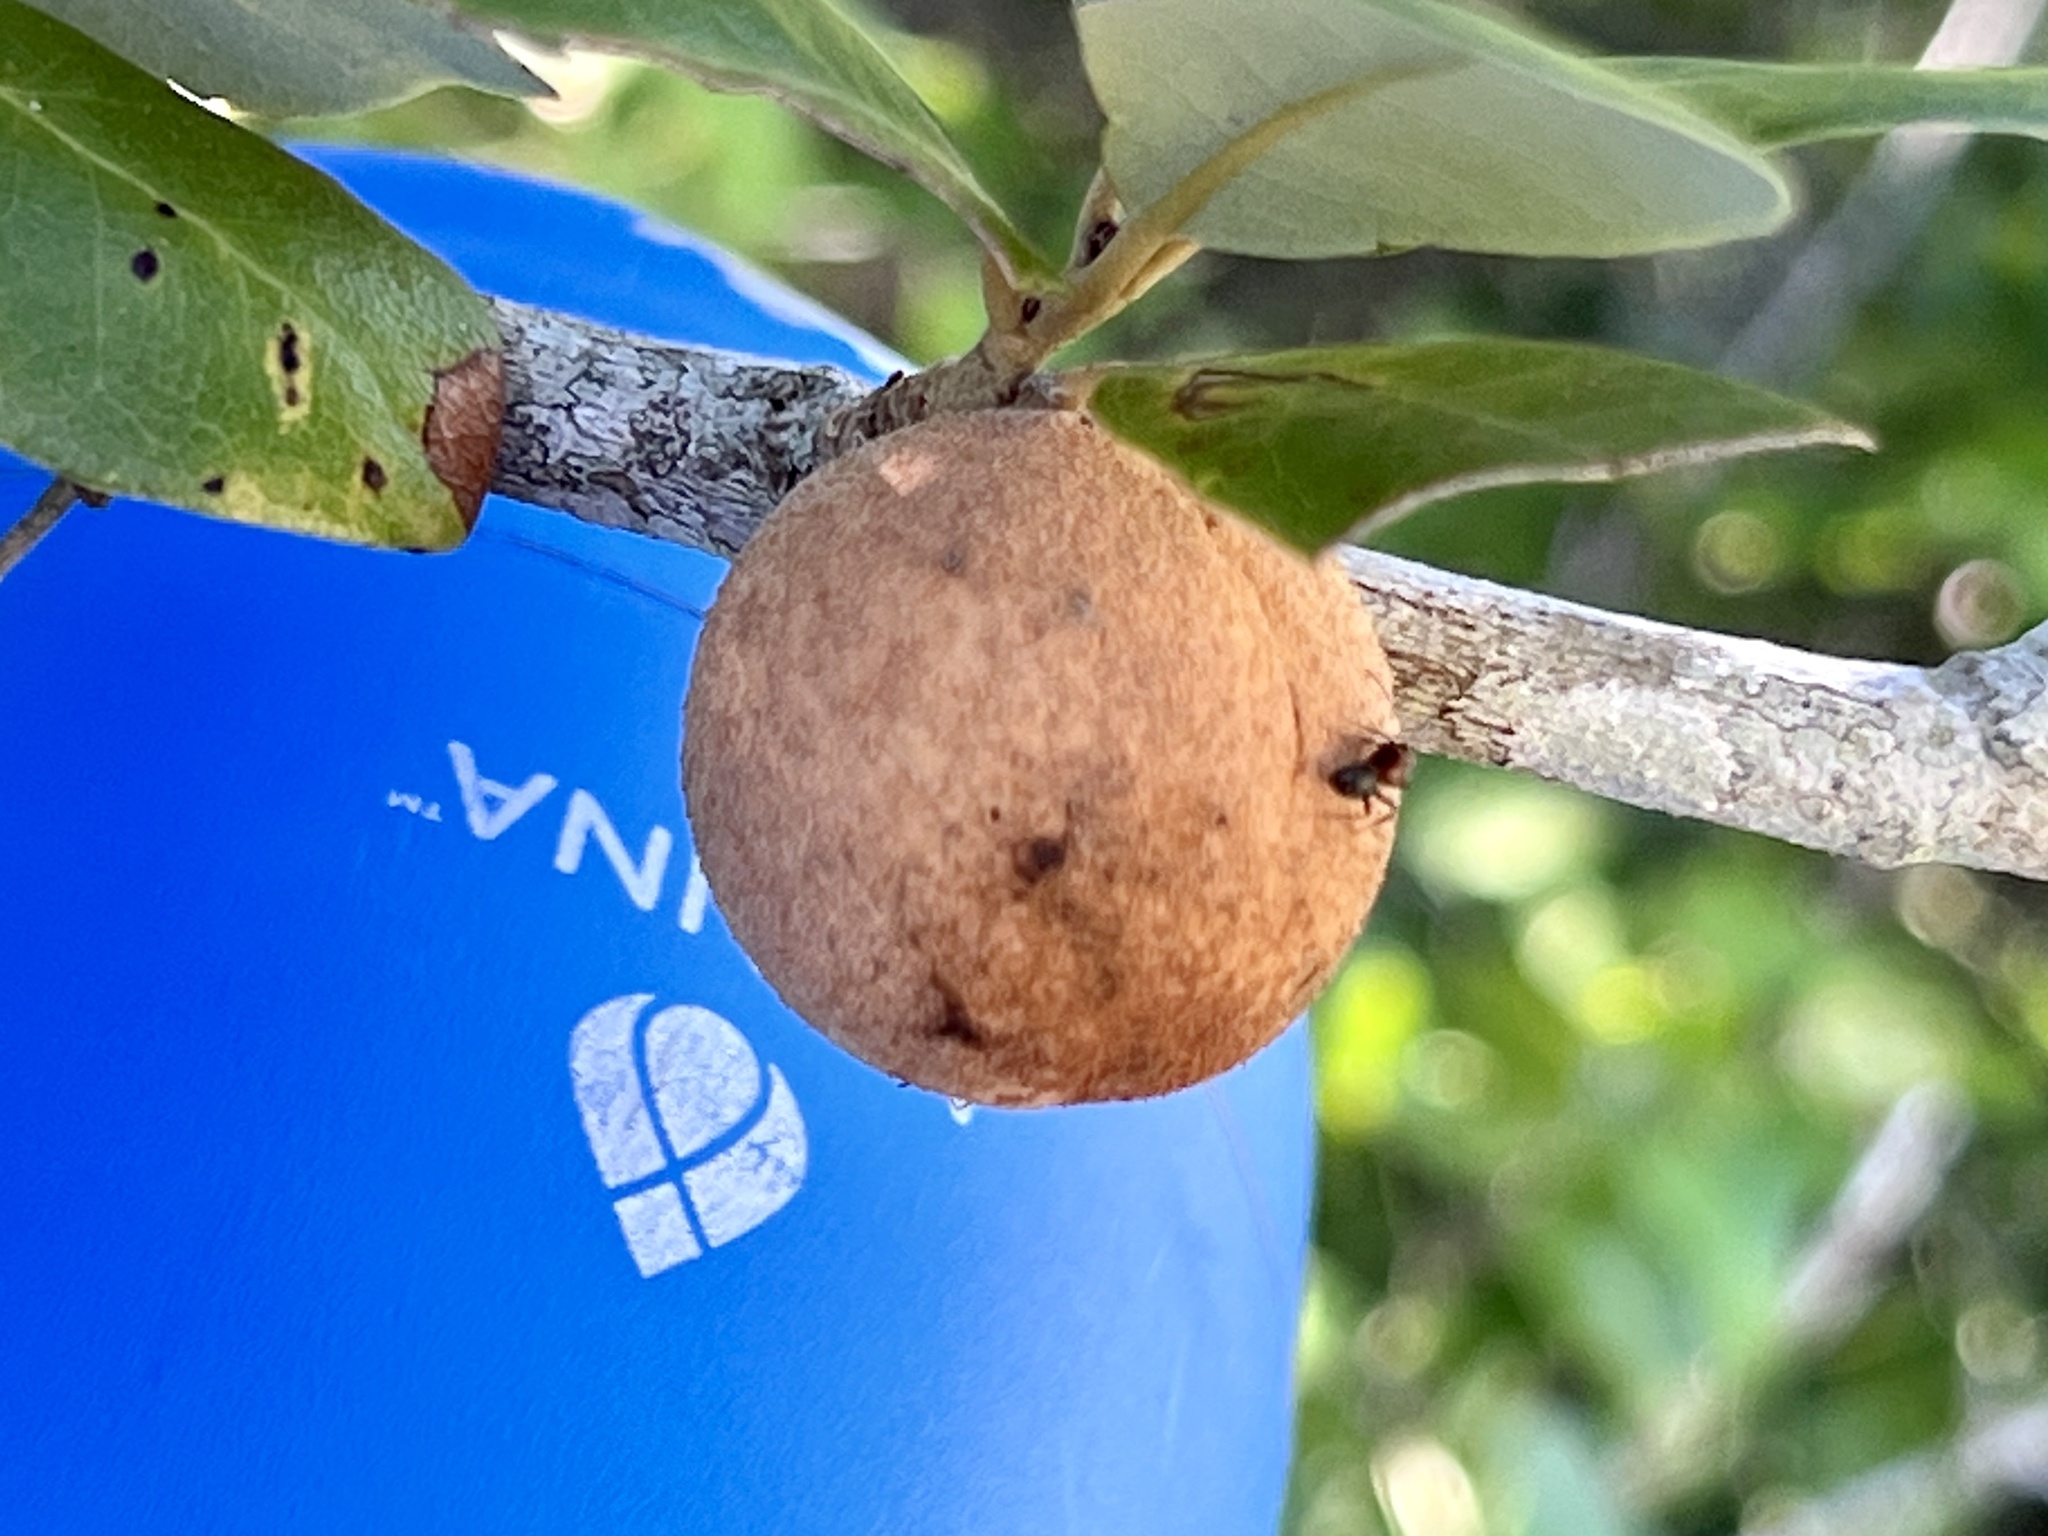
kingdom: Animalia
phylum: Arthropoda
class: Insecta
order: Hymenoptera
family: Cynipidae
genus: Disholcaspis
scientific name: Disholcaspis
